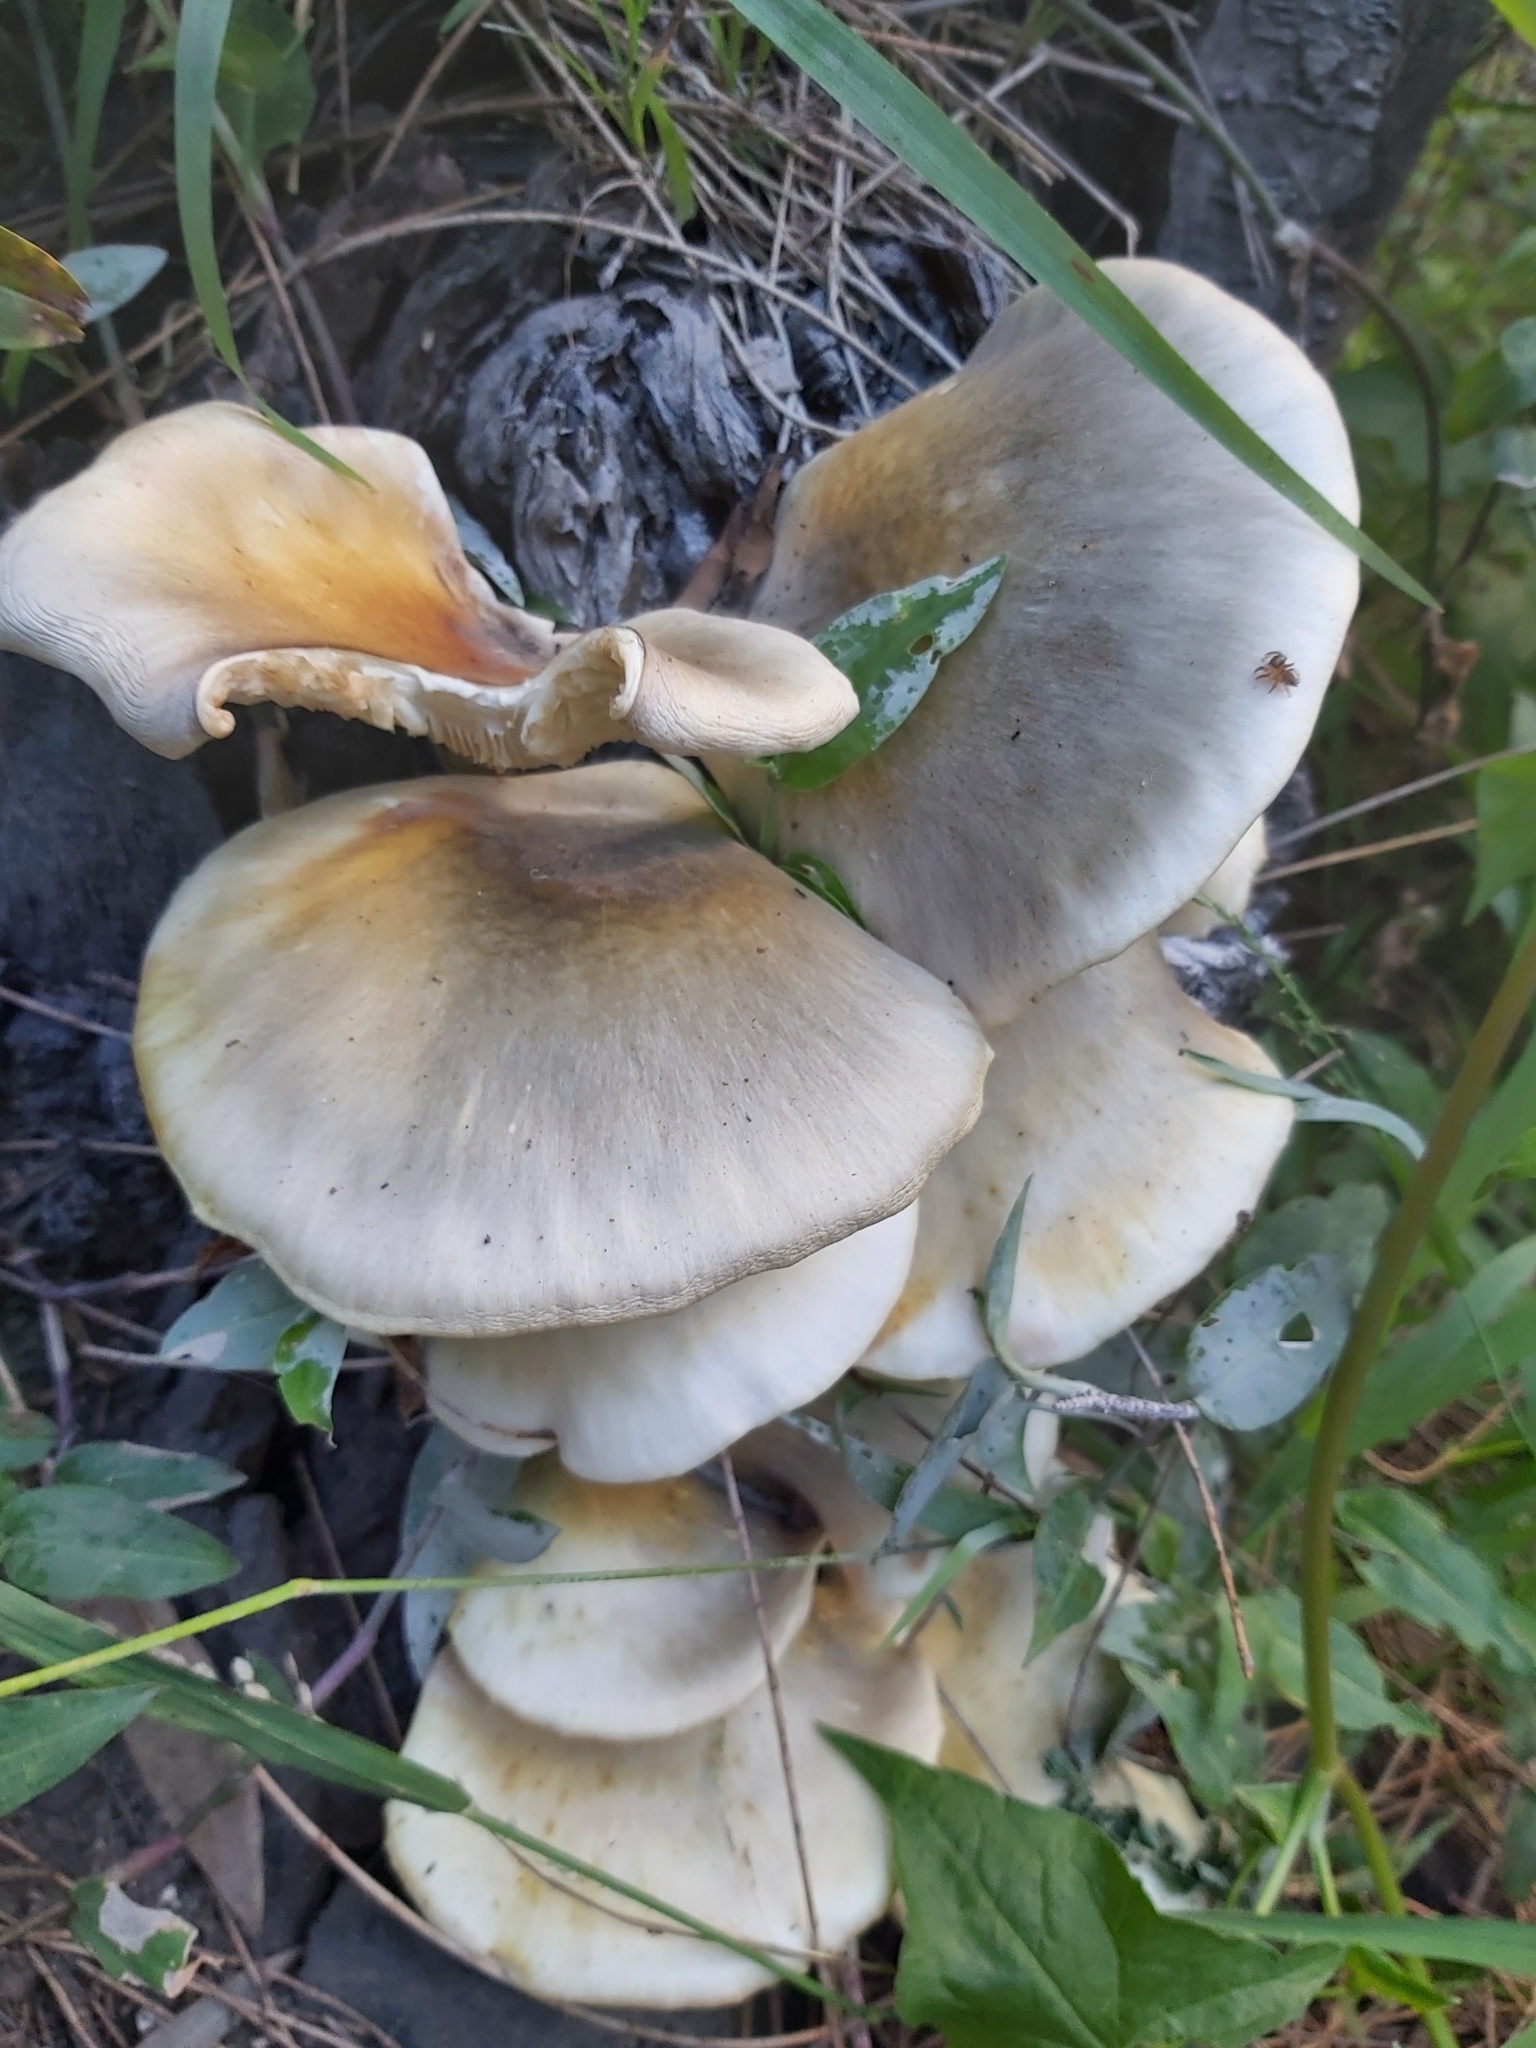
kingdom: Fungi
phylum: Basidiomycota
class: Agaricomycetes
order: Agaricales
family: Omphalotaceae
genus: Omphalotus
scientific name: Omphalotus nidiformis
